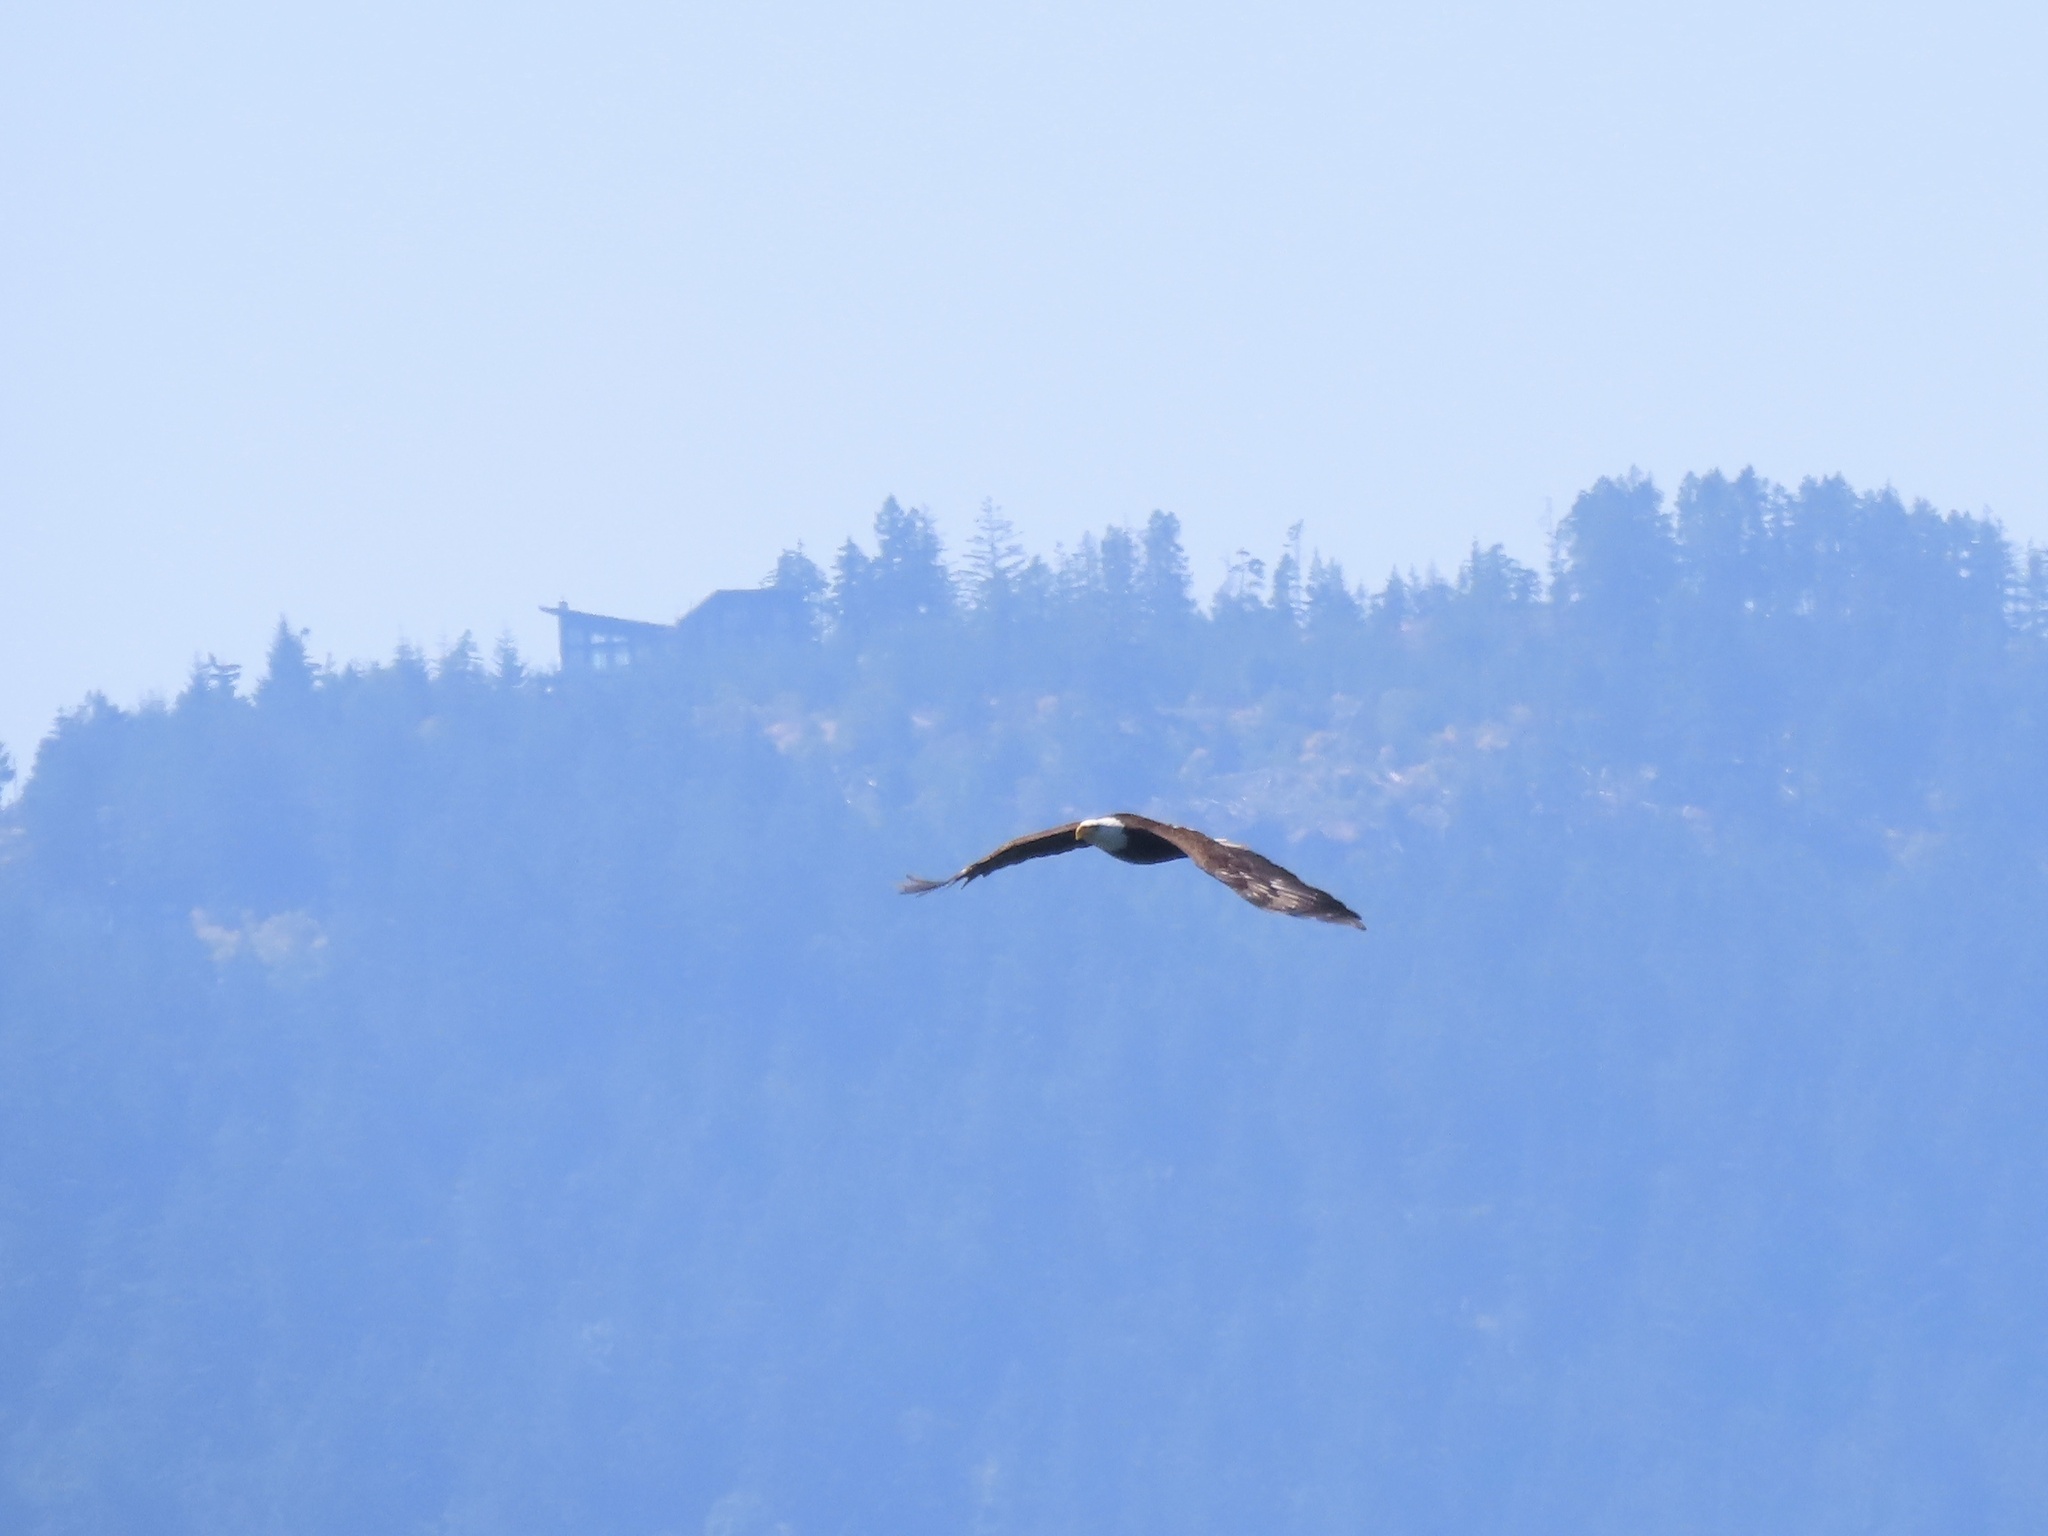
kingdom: Animalia
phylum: Chordata
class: Aves
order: Accipitriformes
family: Accipitridae
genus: Haliaeetus
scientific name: Haliaeetus leucocephalus
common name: Bald eagle
